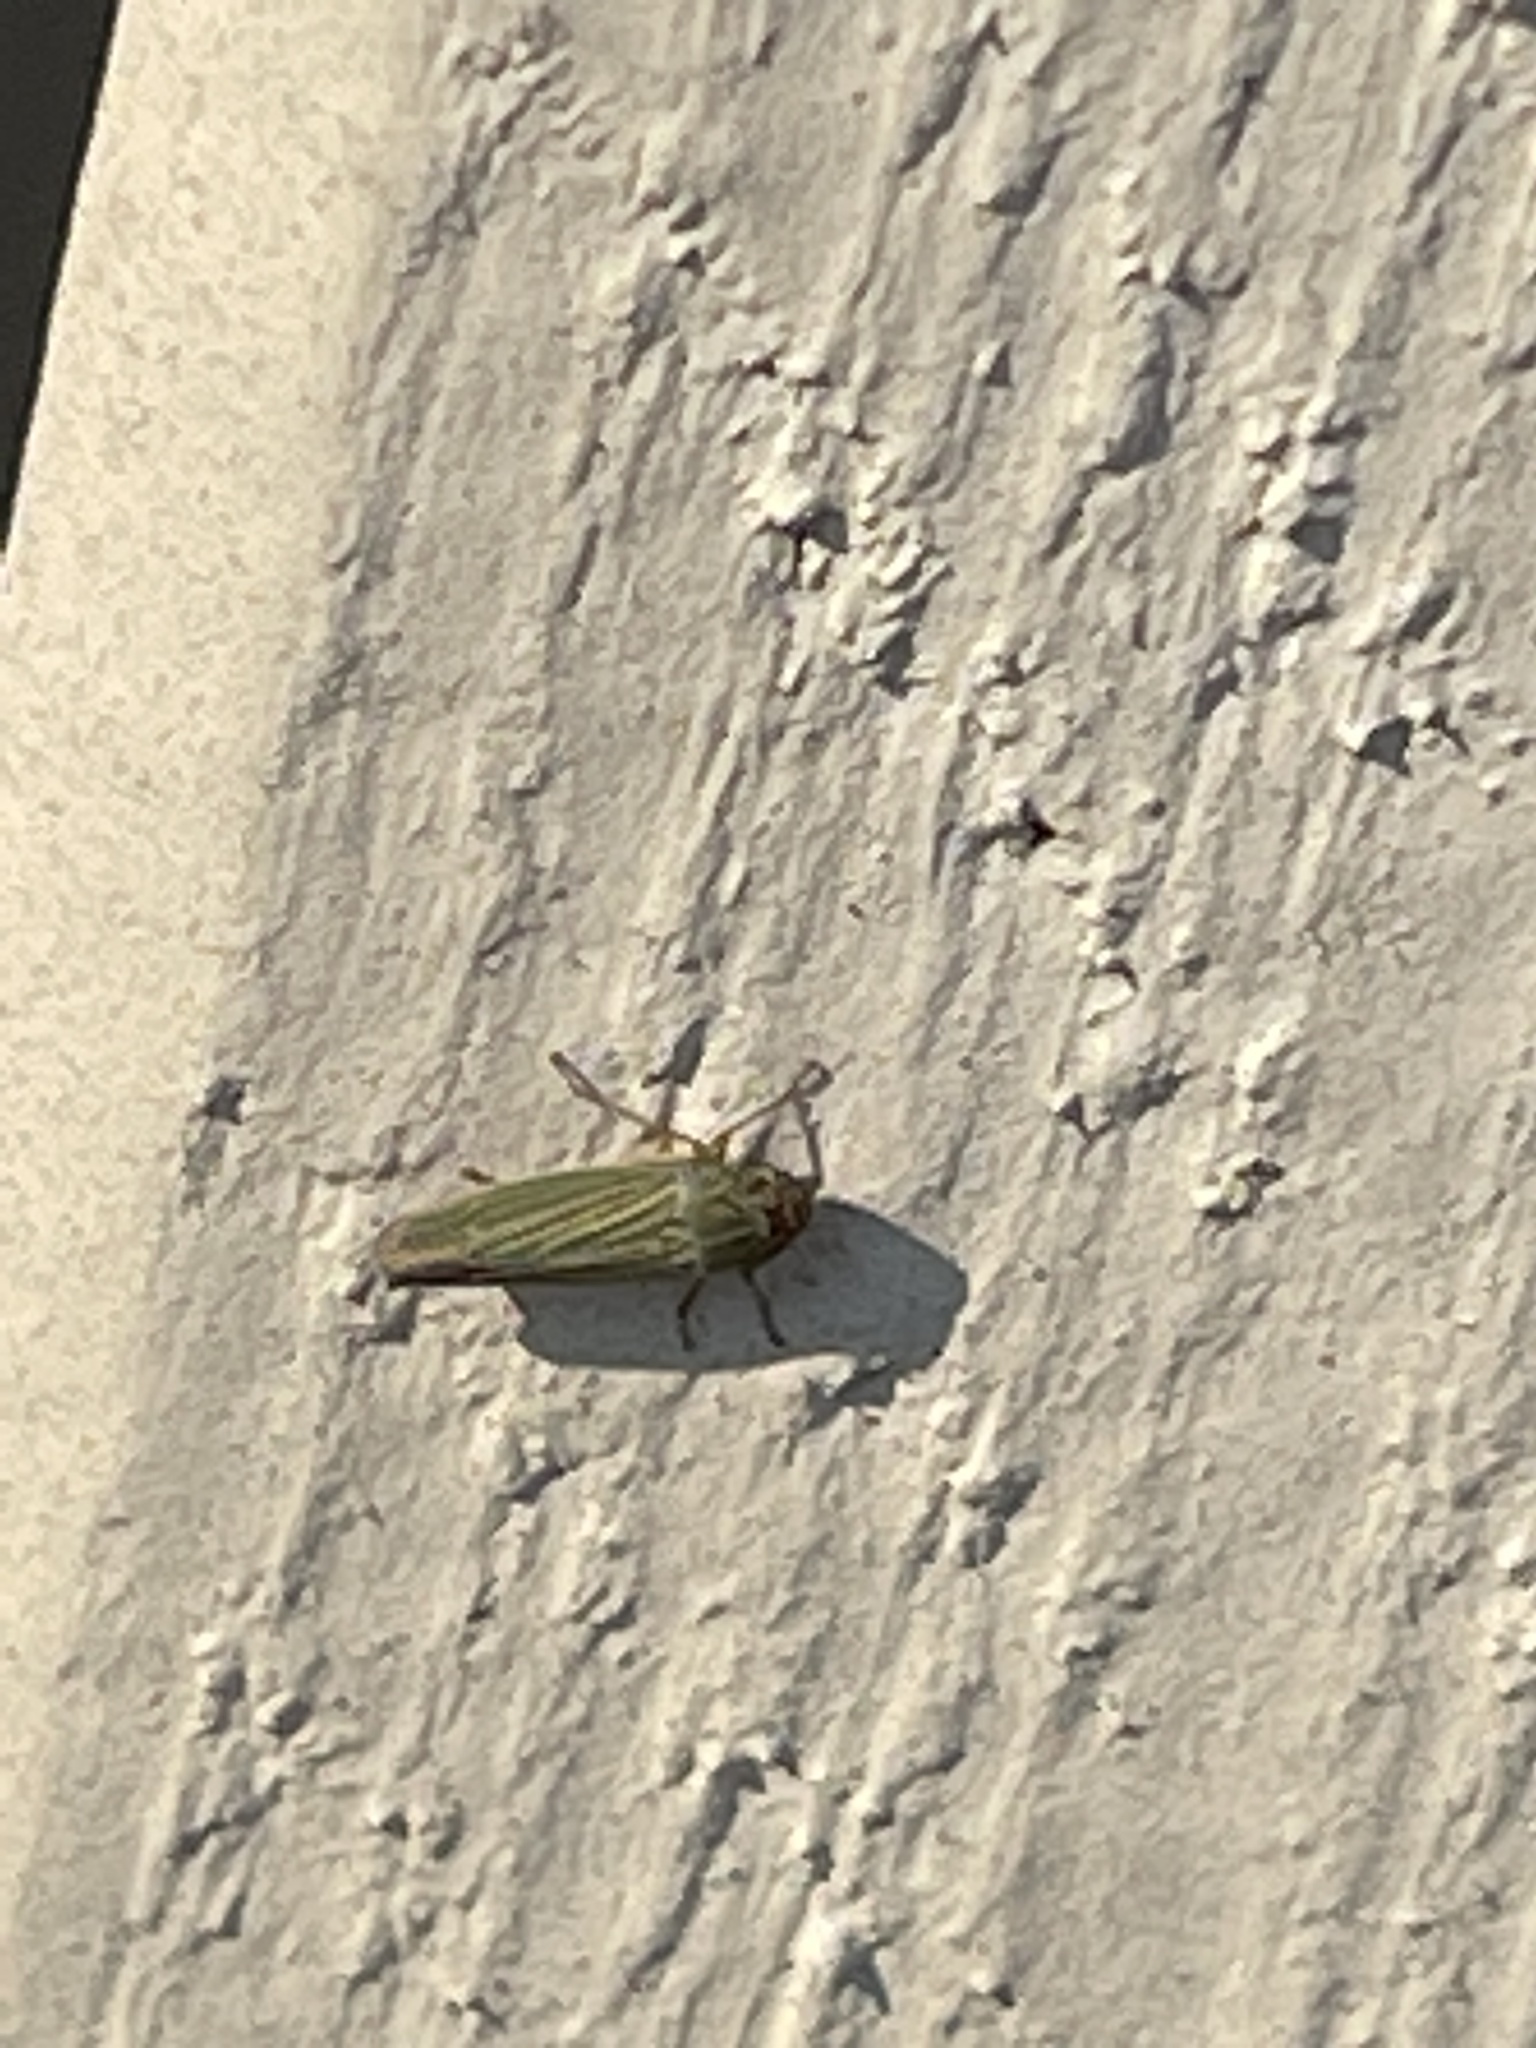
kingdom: Animalia
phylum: Arthropoda
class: Insecta
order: Hemiptera
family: Cicadellidae
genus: Xyphon
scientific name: Xyphon reticulatum
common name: Planthopper
